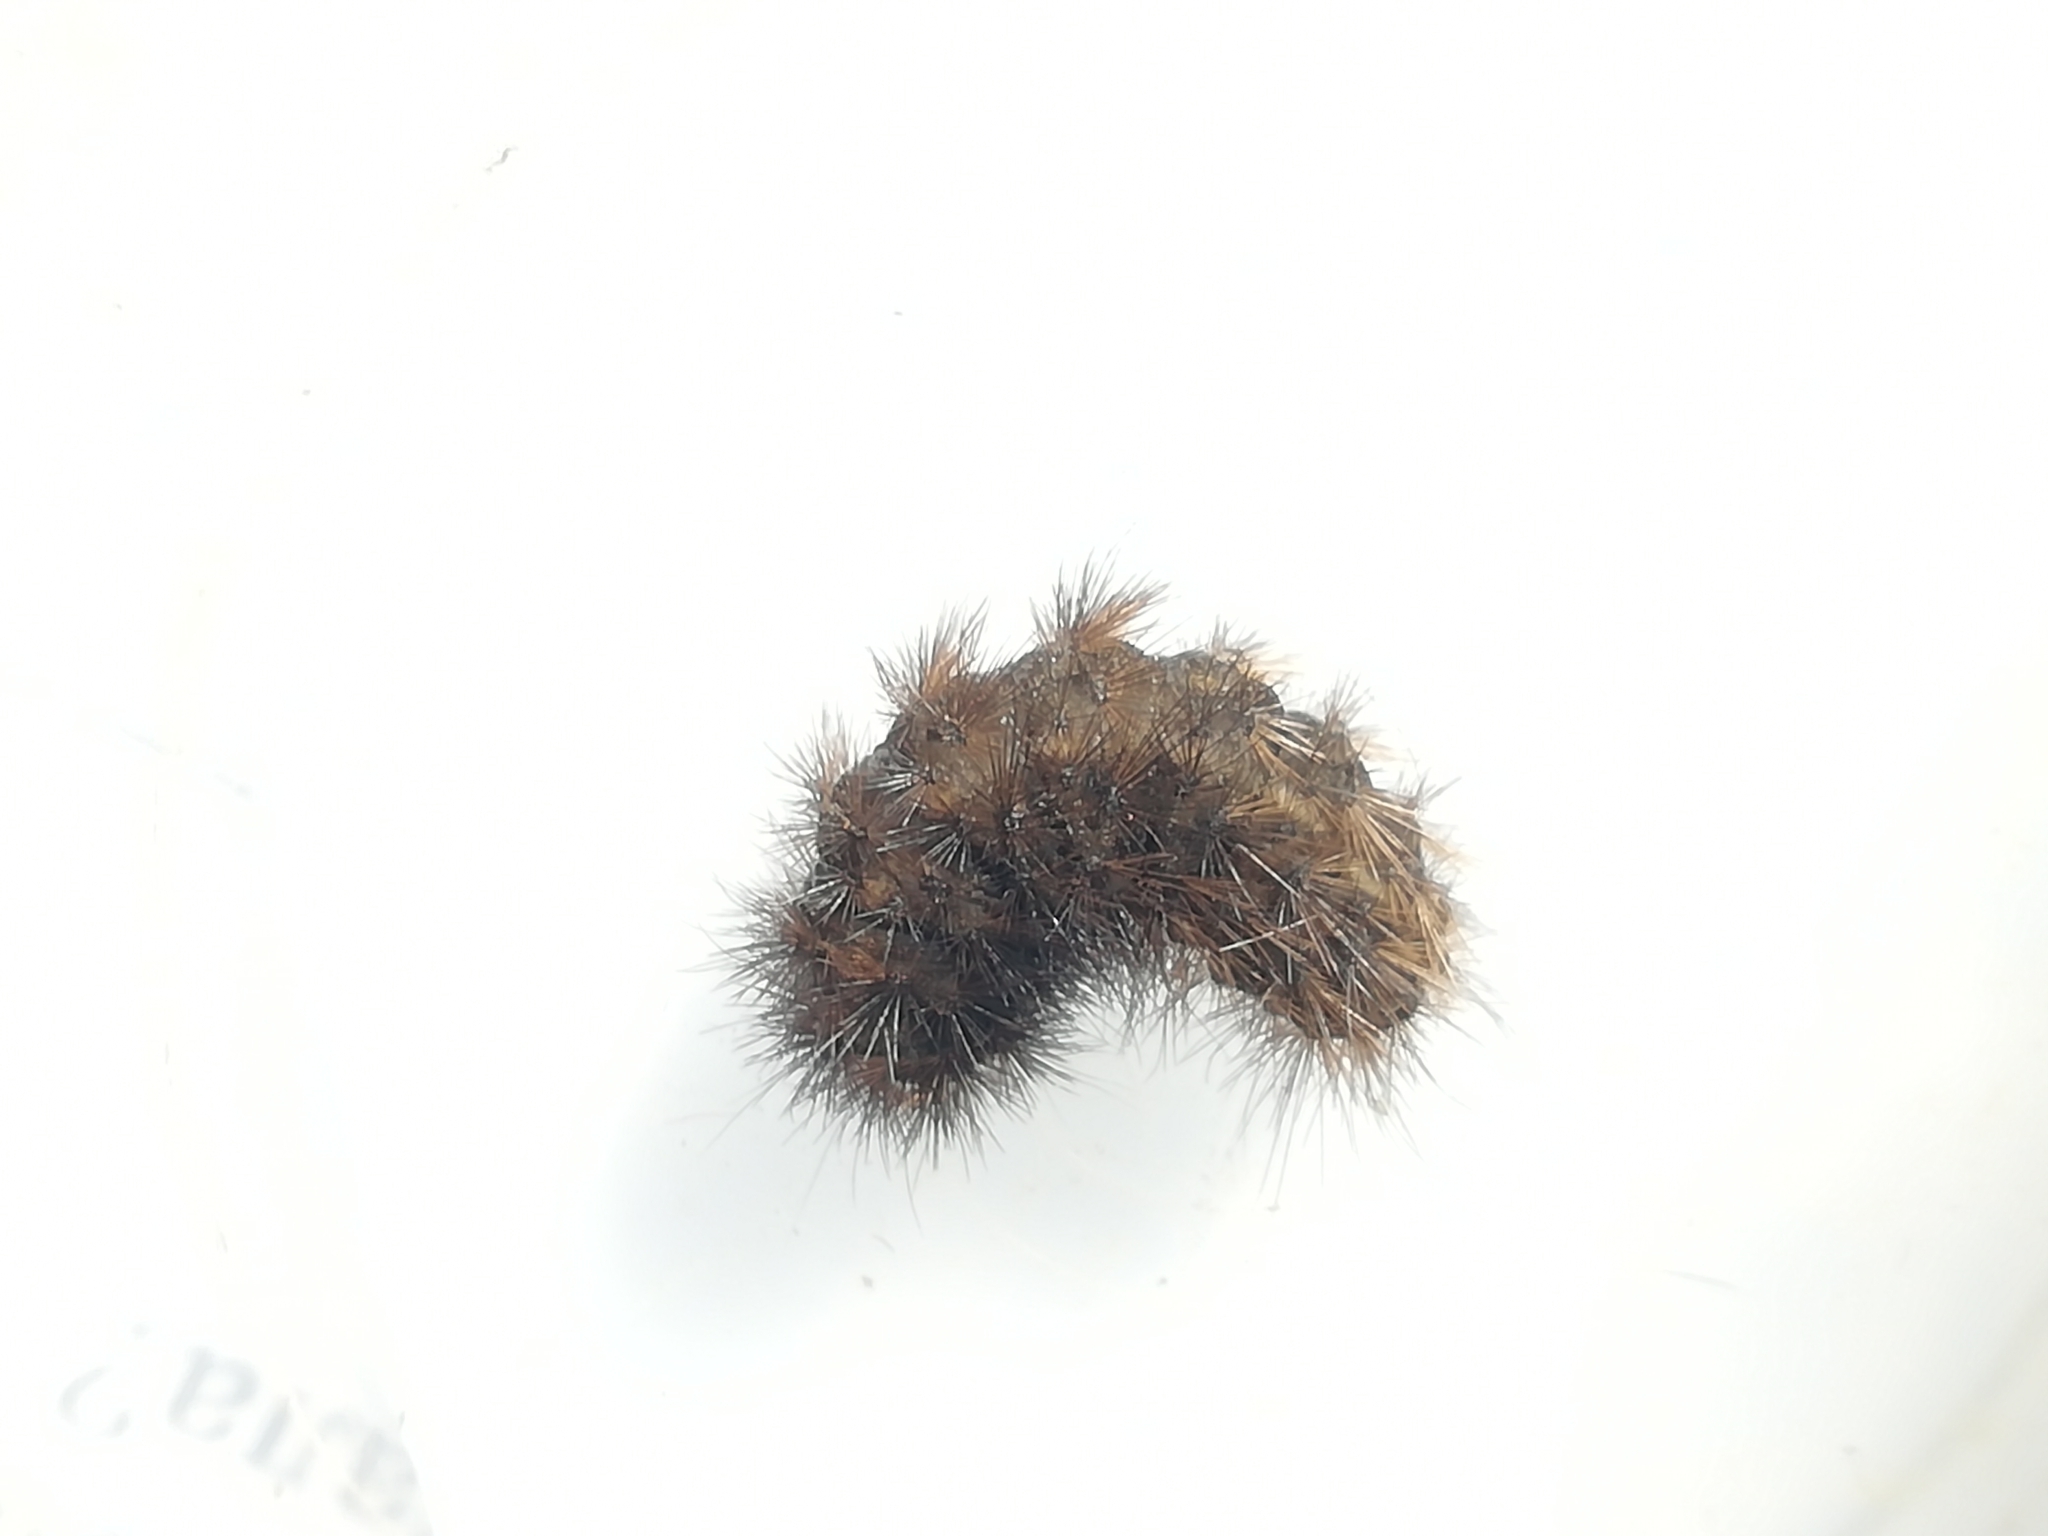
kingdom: Animalia
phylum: Arthropoda
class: Insecta
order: Lepidoptera
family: Erebidae
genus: Phragmatobia
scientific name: Phragmatobia fuliginosa
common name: Ruby tiger
